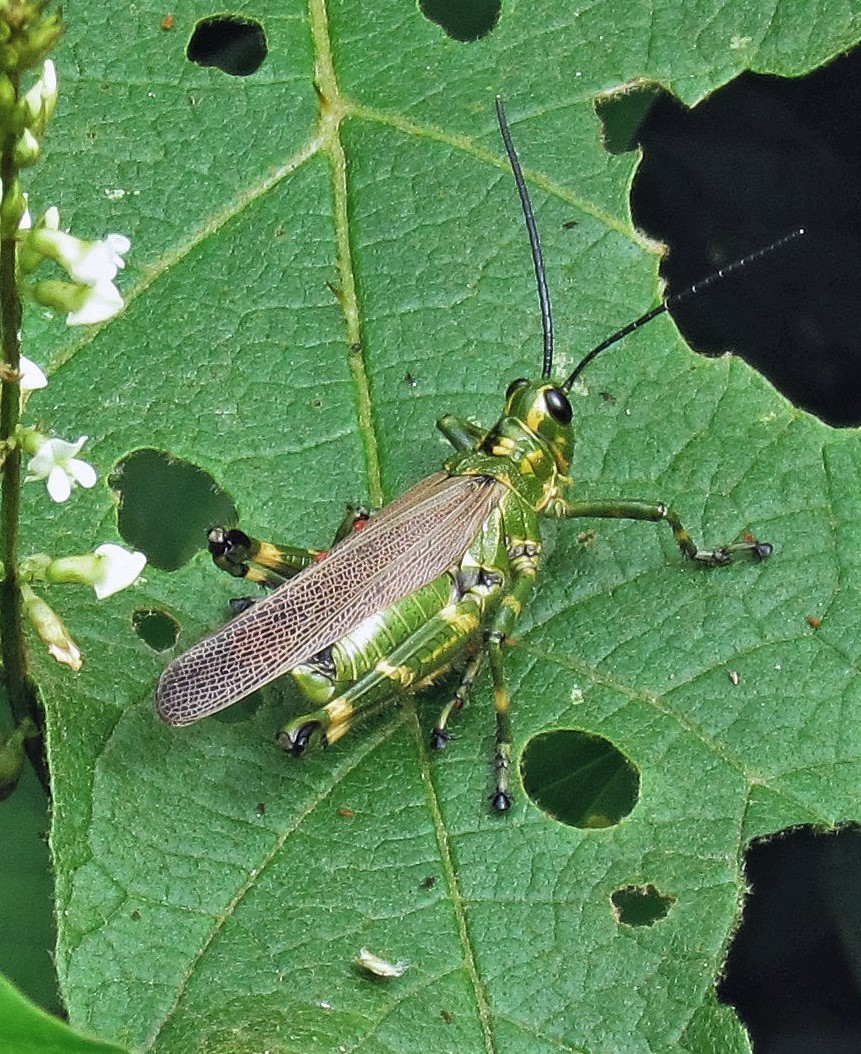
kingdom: Animalia
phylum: Arthropoda
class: Insecta
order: Orthoptera
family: Romaleidae
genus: Chromacris
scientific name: Chromacris speciosa
